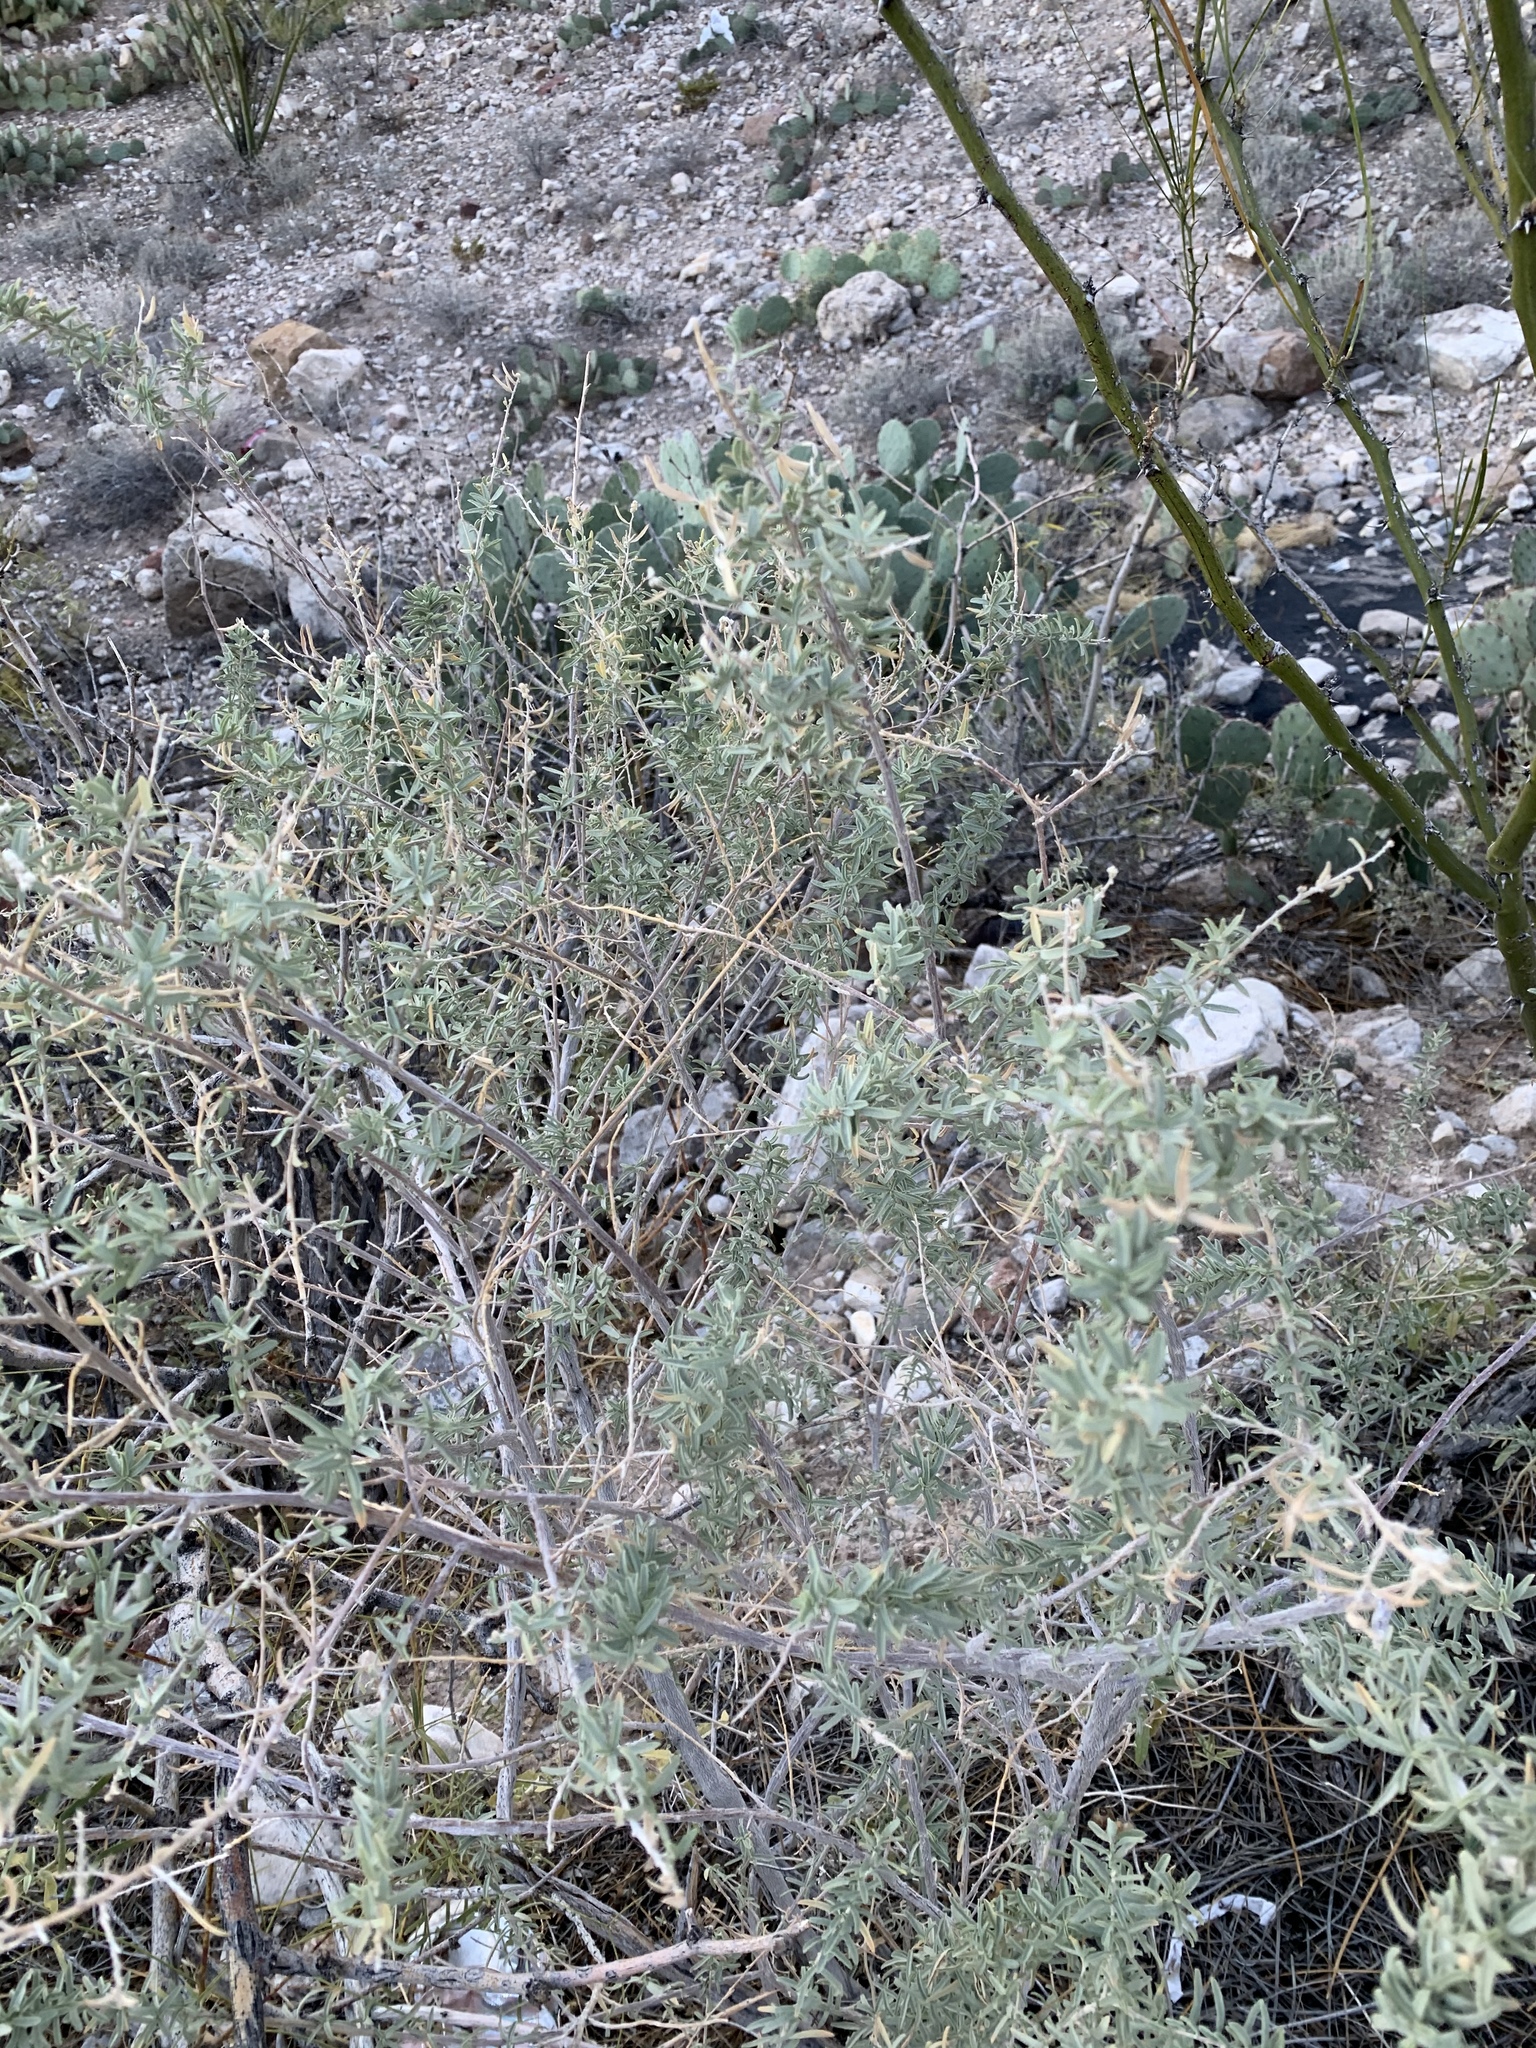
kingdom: Plantae
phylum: Tracheophyta
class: Magnoliopsida
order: Caryophyllales
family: Amaranthaceae
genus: Atriplex
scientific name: Atriplex canescens
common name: Four-wing saltbush
